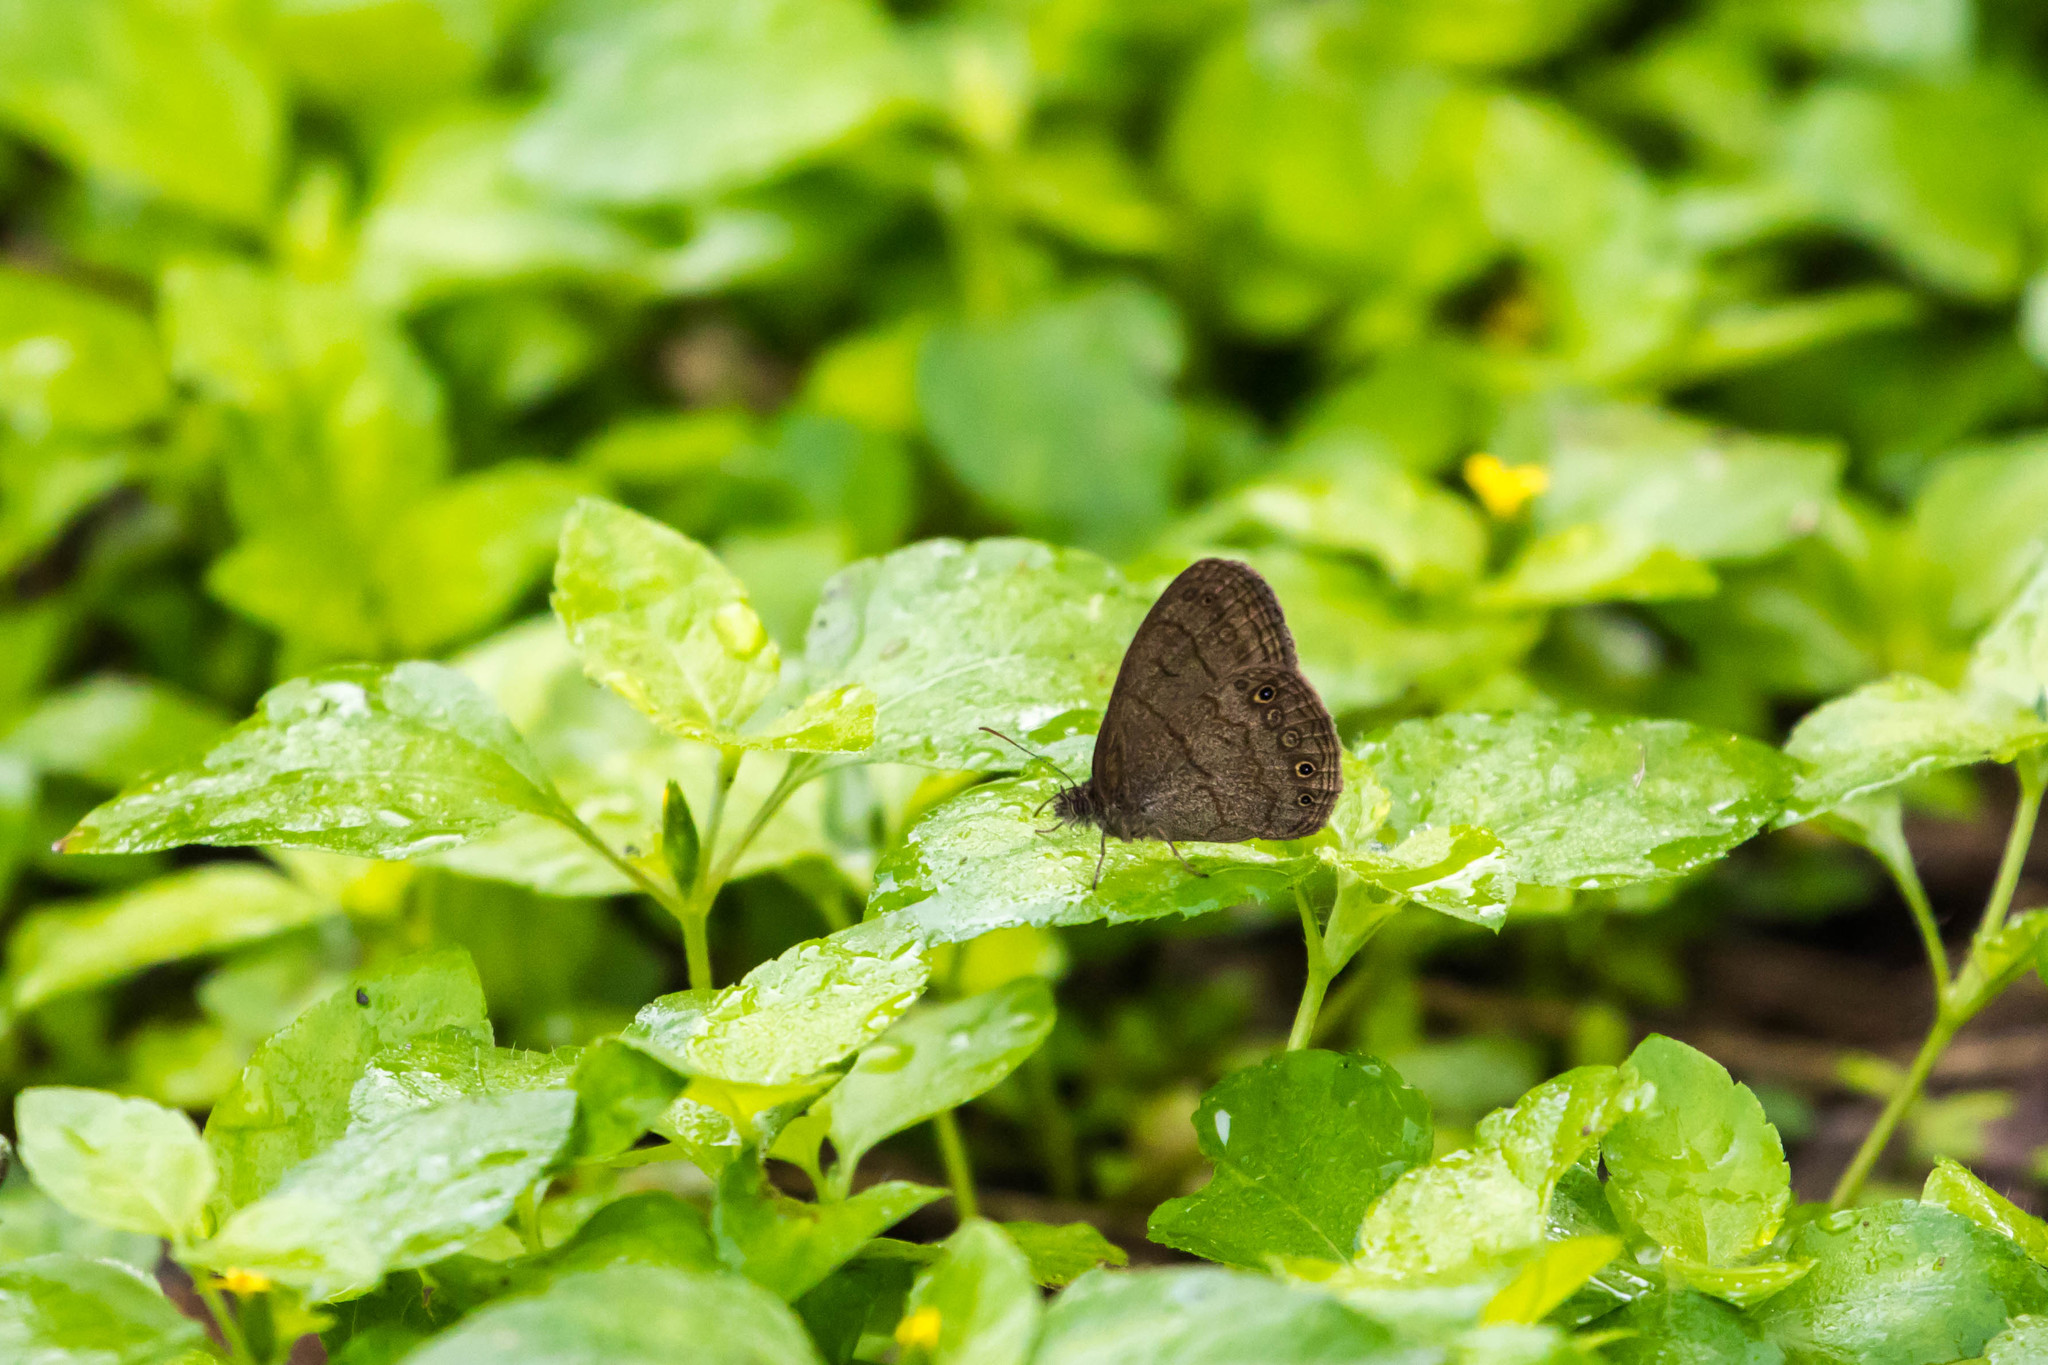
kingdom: Animalia
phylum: Arthropoda
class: Insecta
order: Lepidoptera
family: Nymphalidae
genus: Hermeuptychia
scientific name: Hermeuptychia hermybius
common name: South texas satyr
